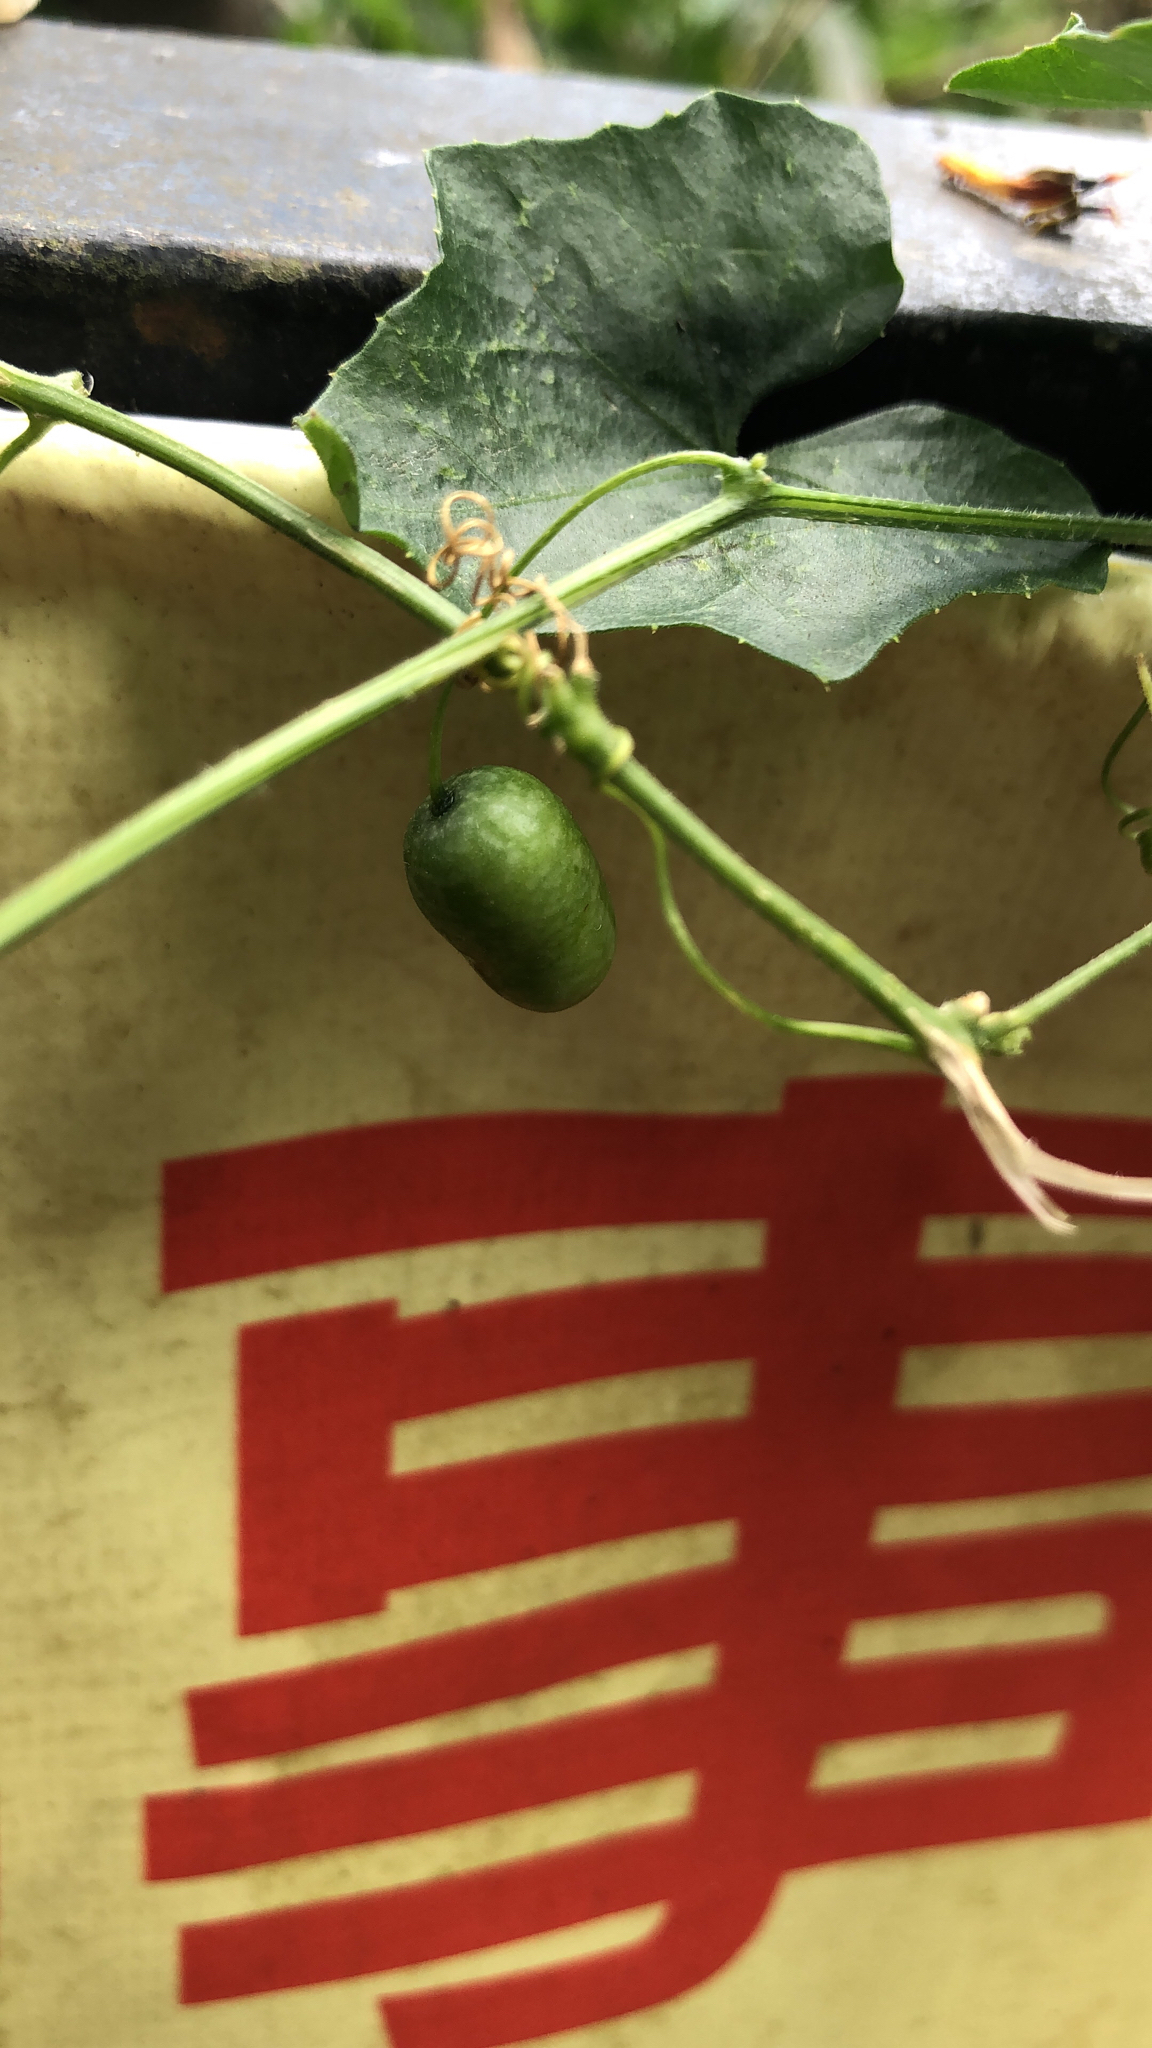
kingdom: Plantae
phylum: Tracheophyta
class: Magnoliopsida
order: Cucurbitales
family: Cucurbitaceae
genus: Melothria
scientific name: Melothria pendula
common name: Creeping-cucumber
